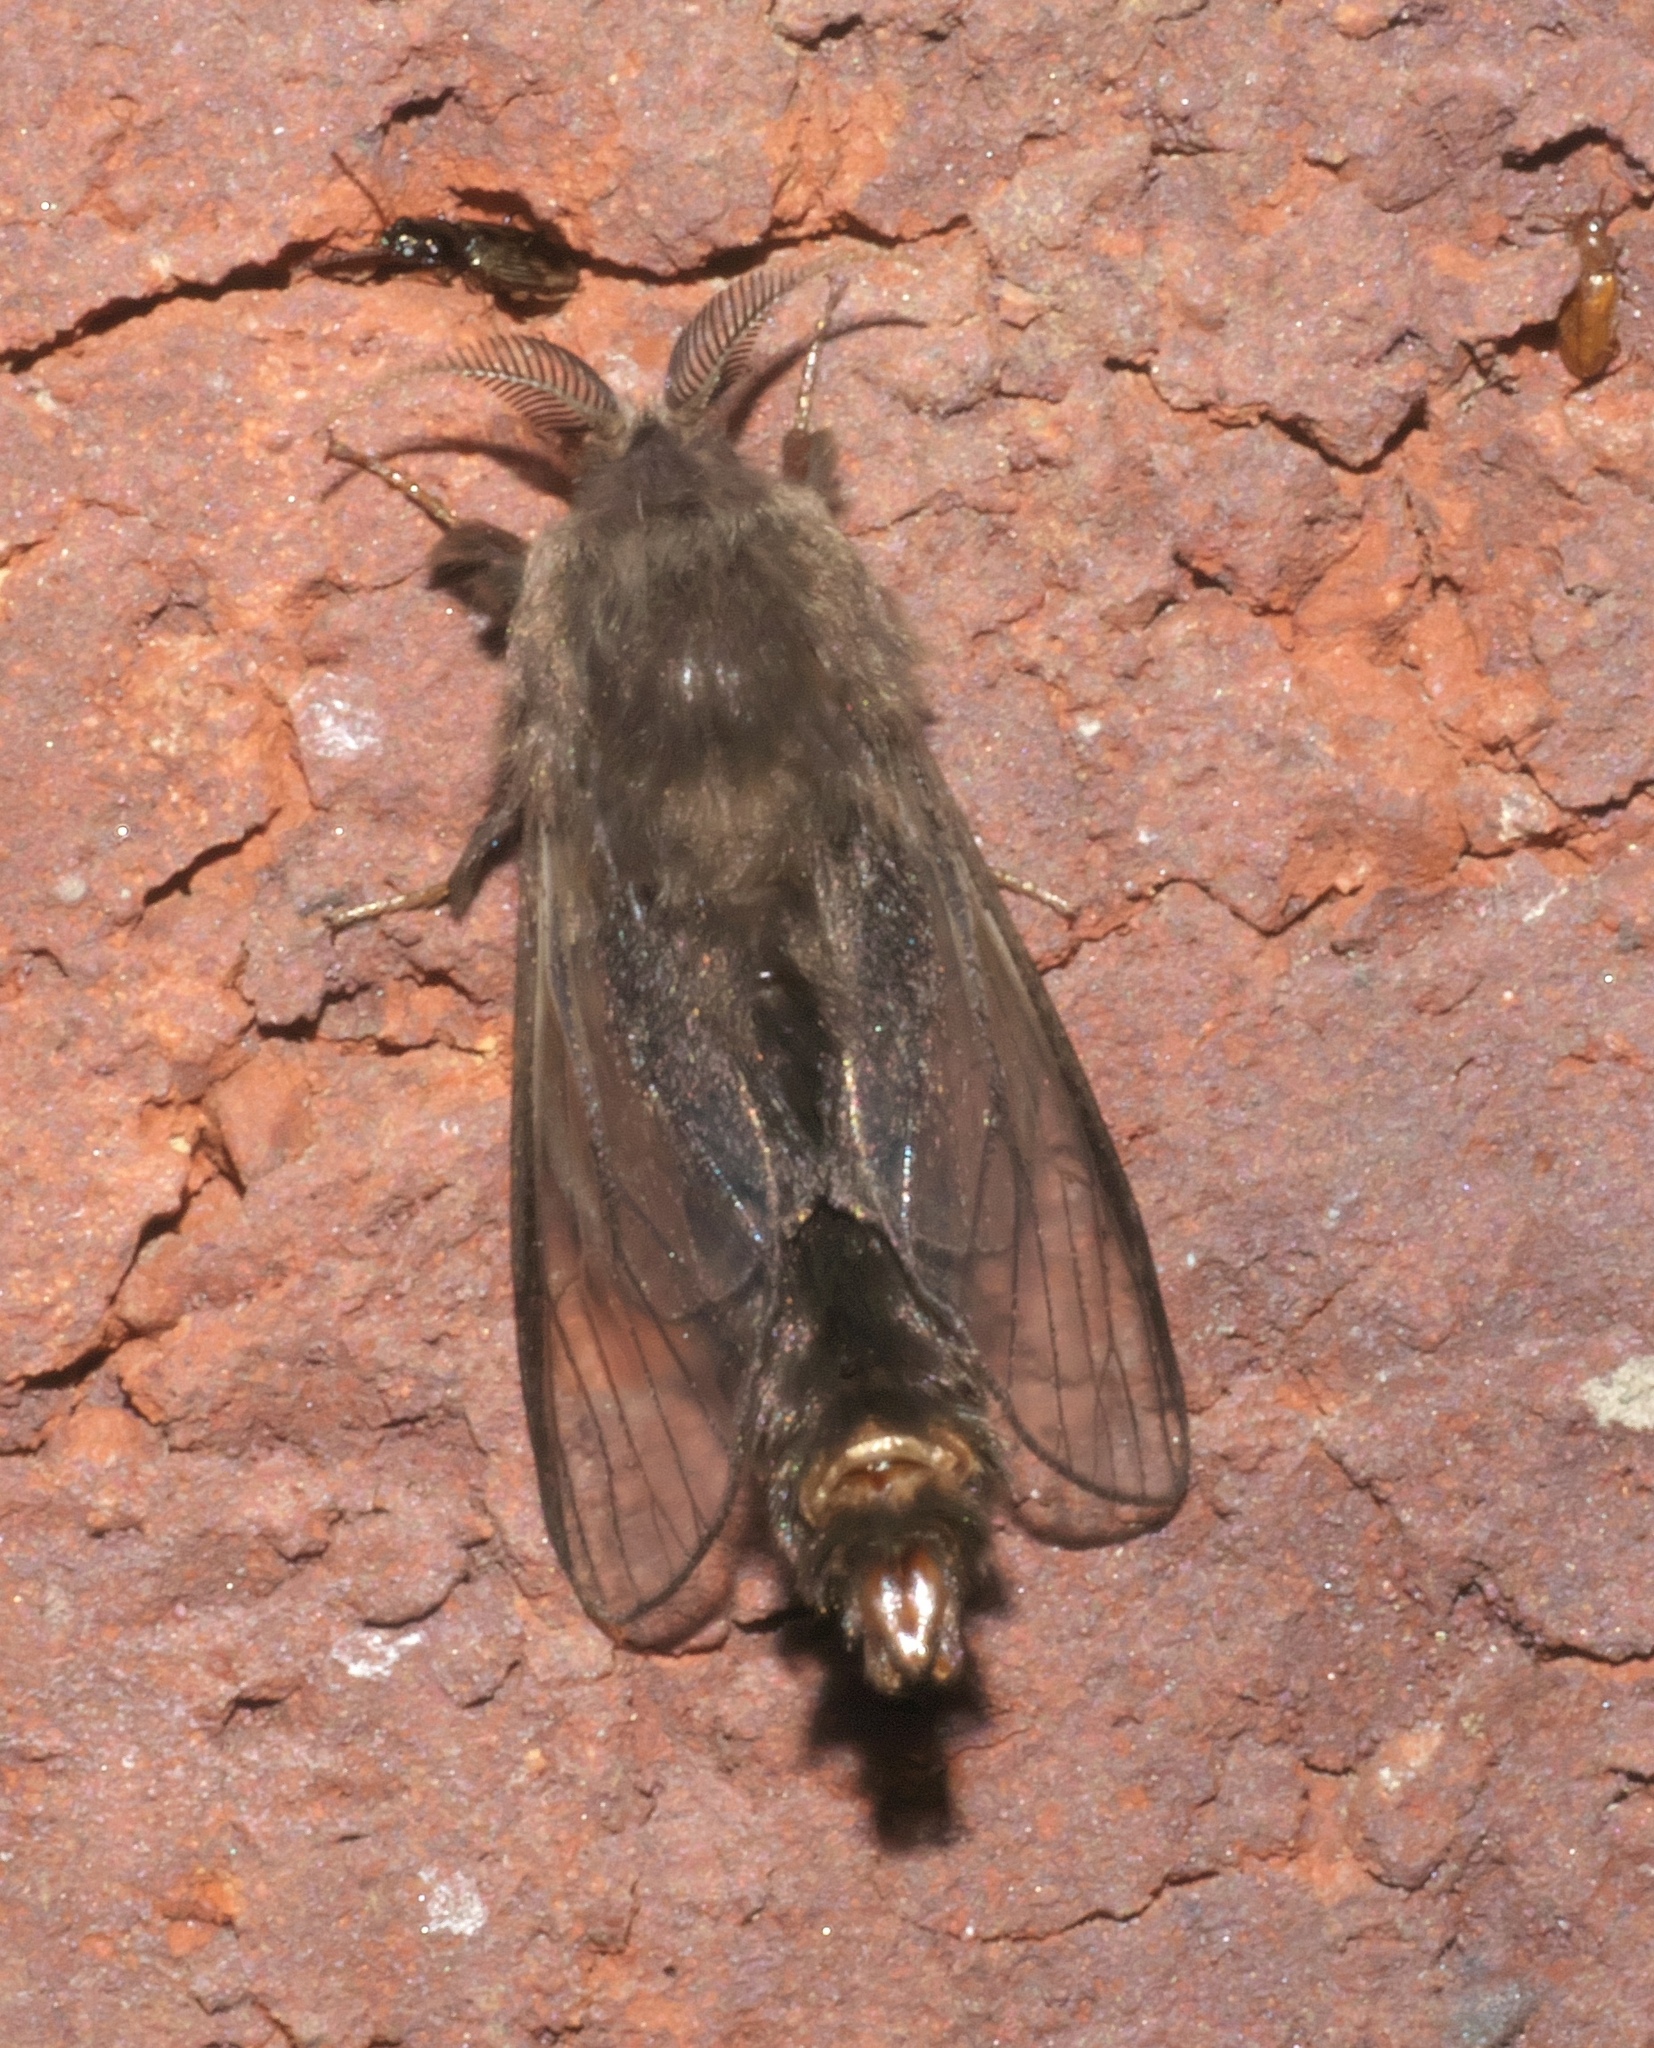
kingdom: Animalia
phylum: Arthropoda
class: Insecta
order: Lepidoptera
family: Psychidae
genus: Thyridopteryx
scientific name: Thyridopteryx ephemeraeformis
